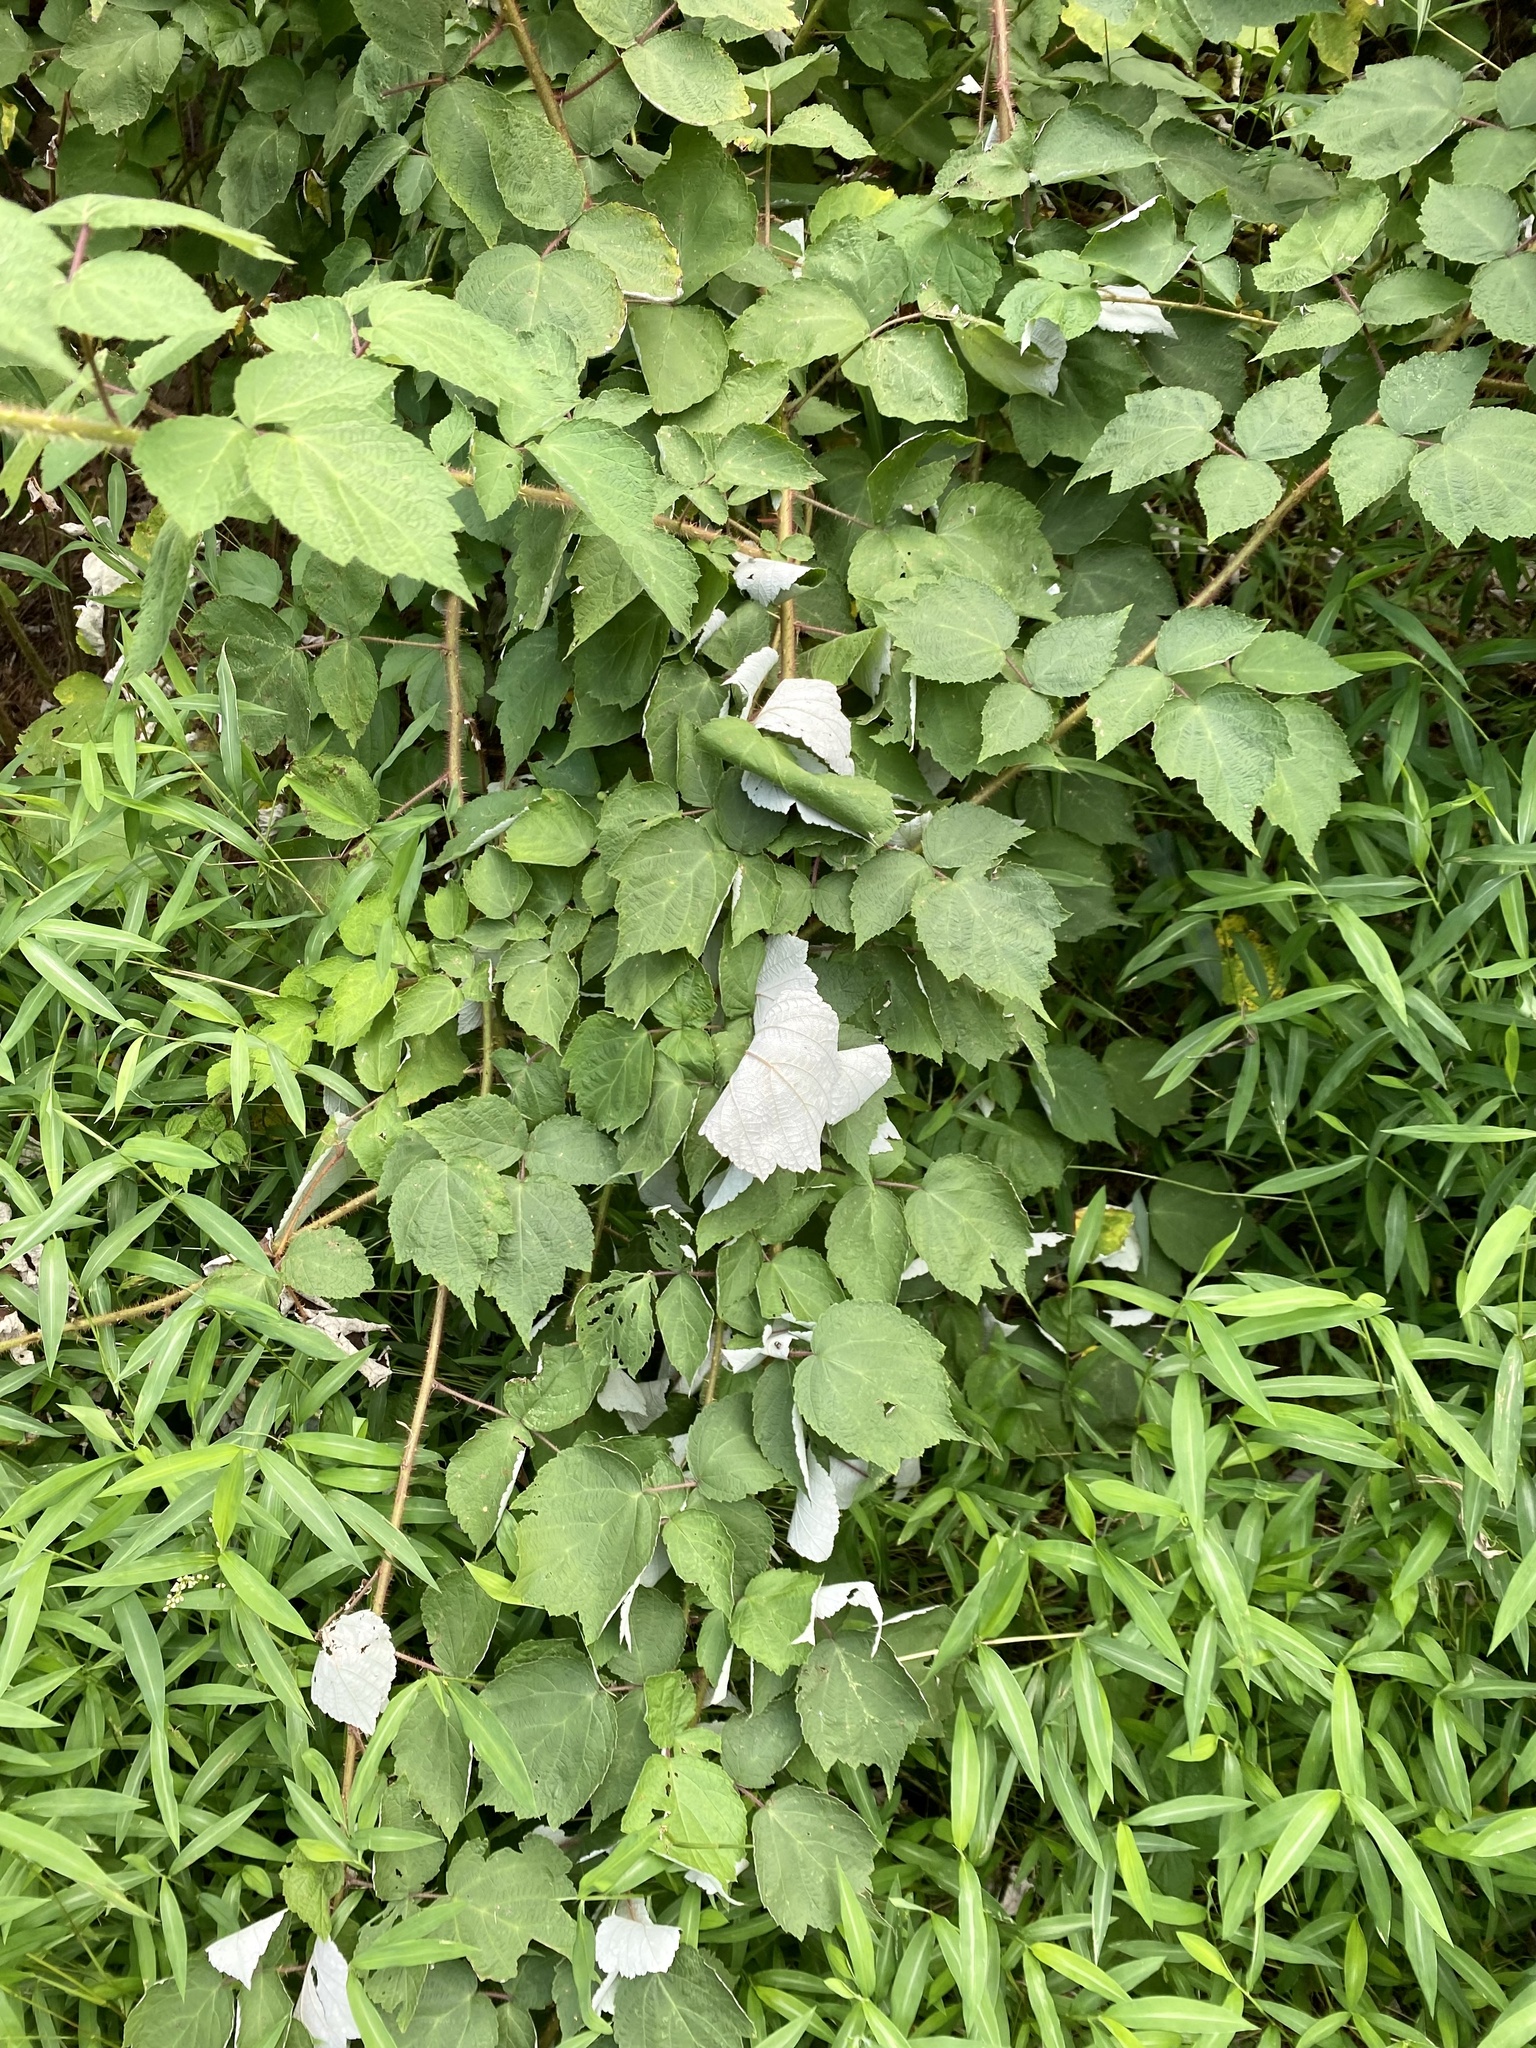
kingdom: Plantae
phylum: Tracheophyta
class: Magnoliopsida
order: Rosales
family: Rosaceae
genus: Rubus
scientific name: Rubus phoenicolasius
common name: Japanese wineberry
